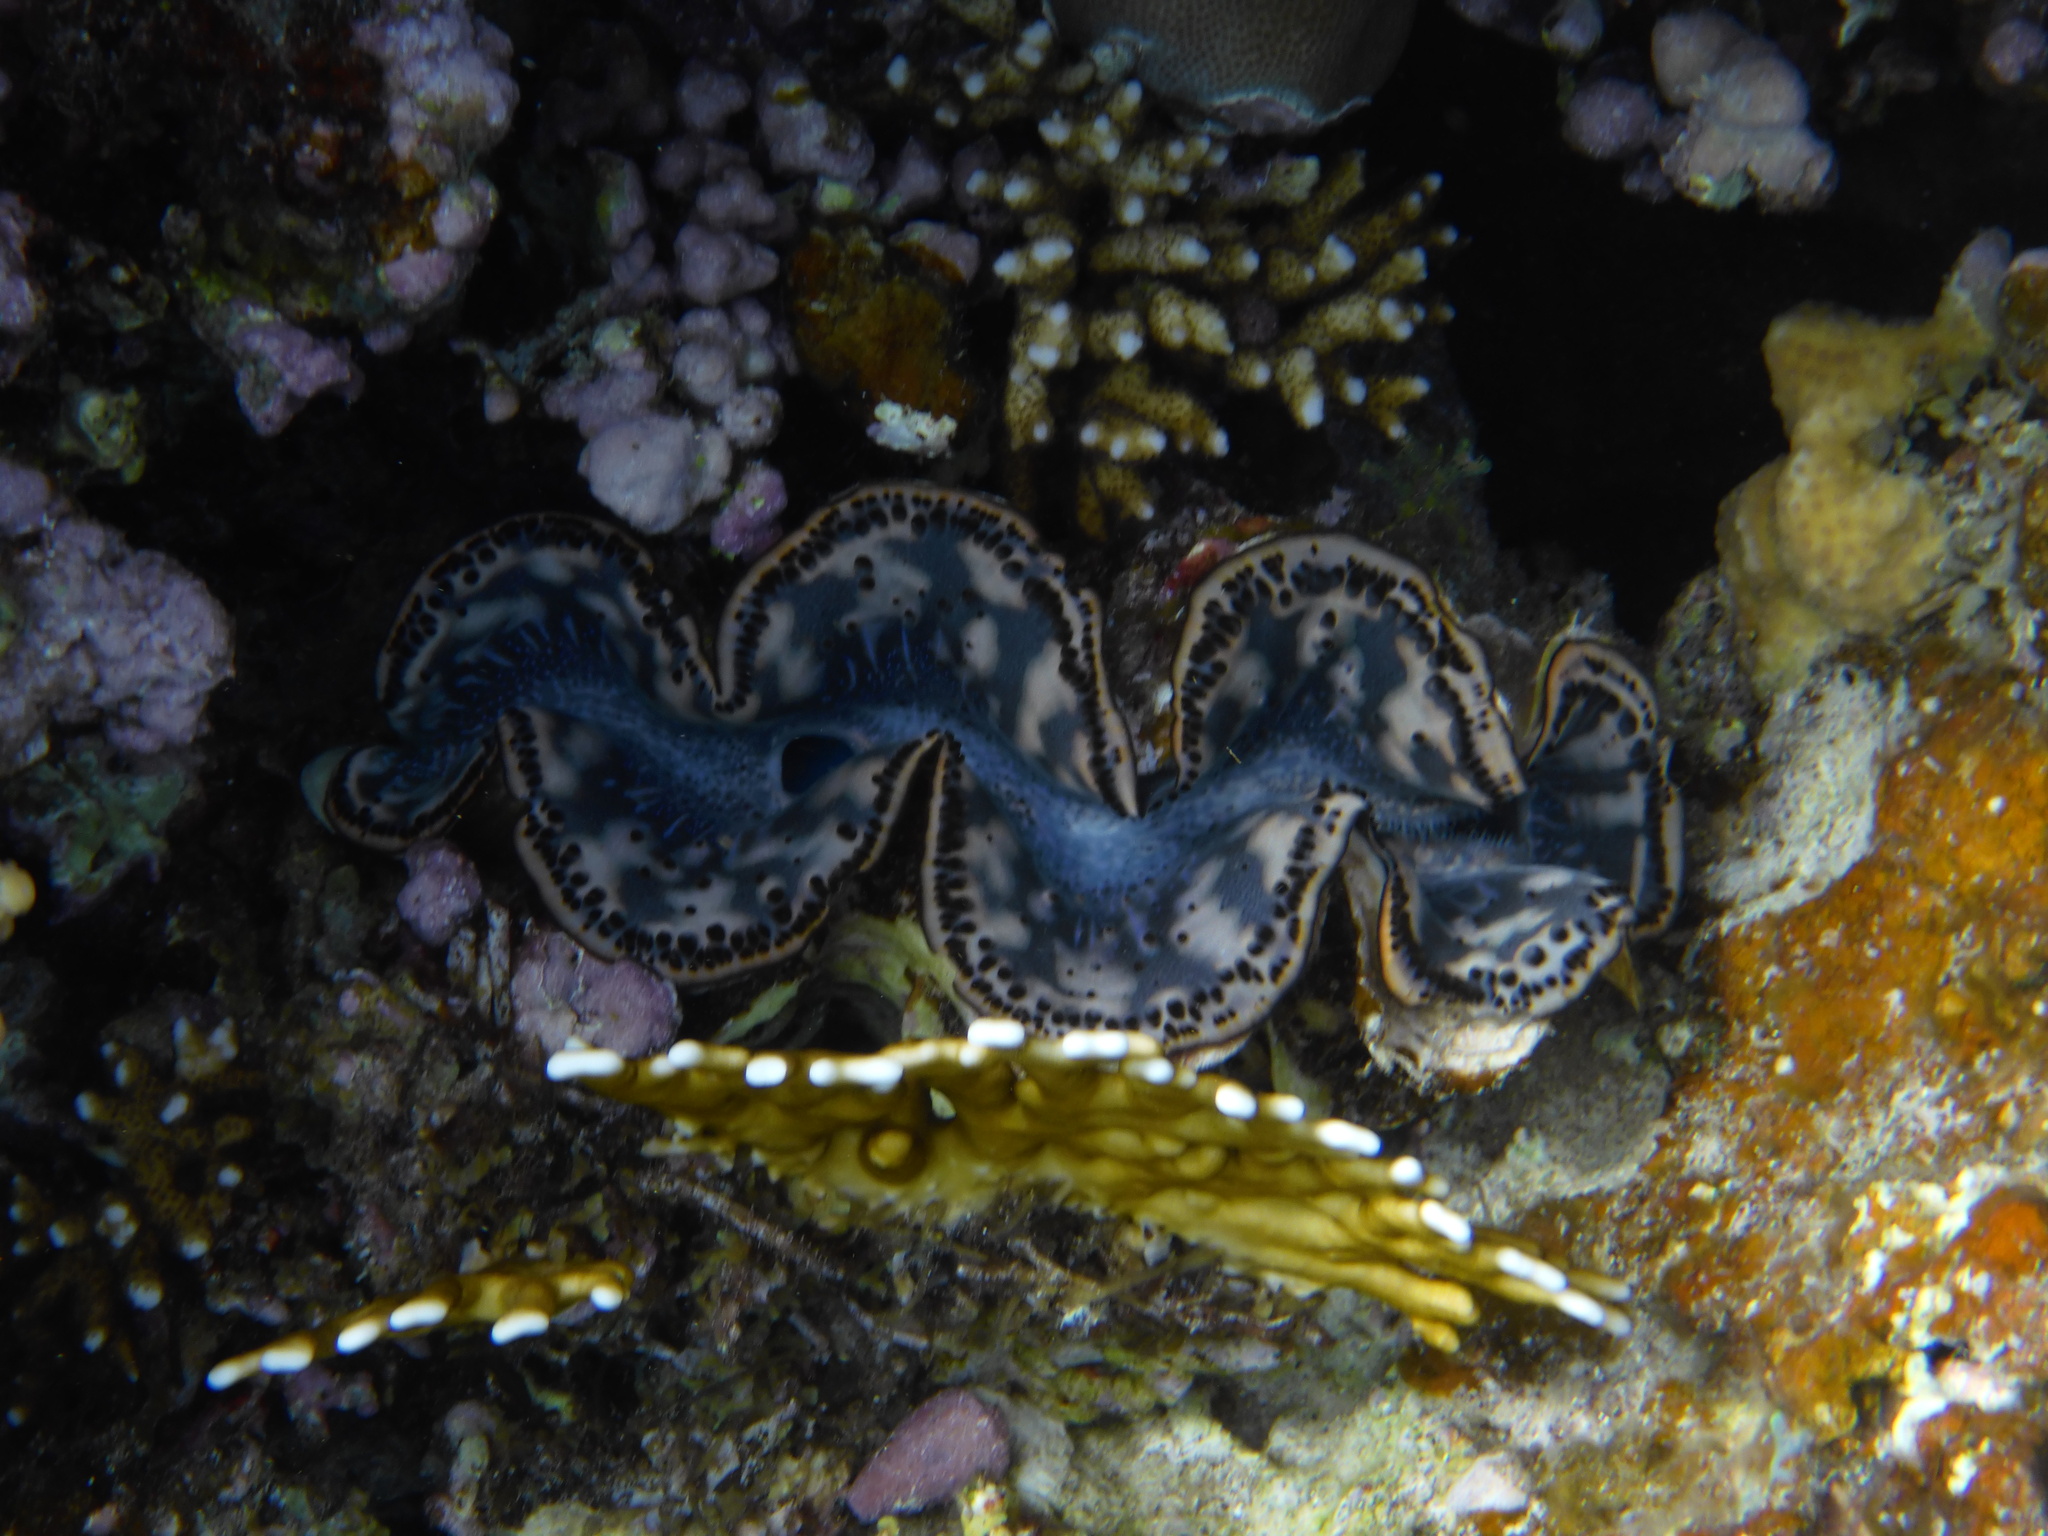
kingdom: Animalia
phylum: Mollusca
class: Bivalvia
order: Cardiida
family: Cardiidae
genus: Tridacna
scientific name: Tridacna maxima
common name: Small giant clam
